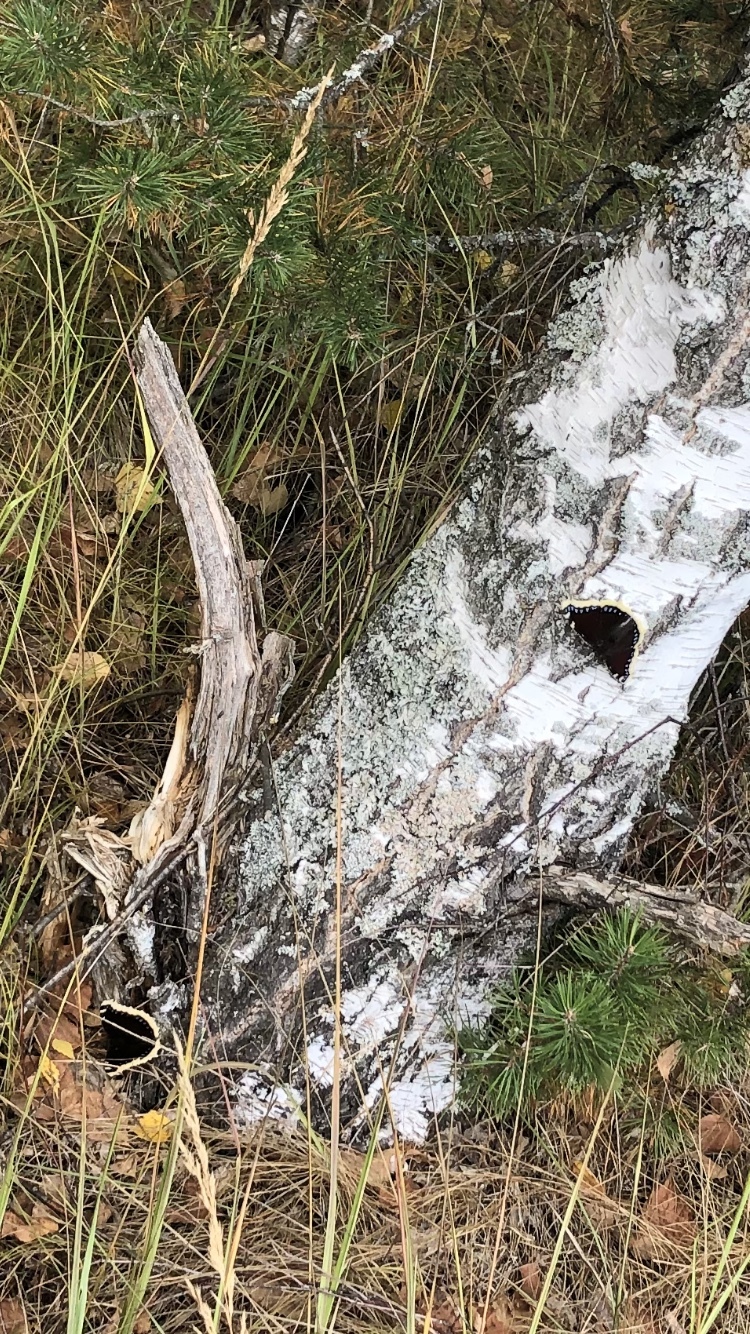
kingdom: Animalia
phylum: Arthropoda
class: Insecta
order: Lepidoptera
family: Nymphalidae
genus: Nymphalis
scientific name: Nymphalis antiopa
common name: Camberwell beauty
